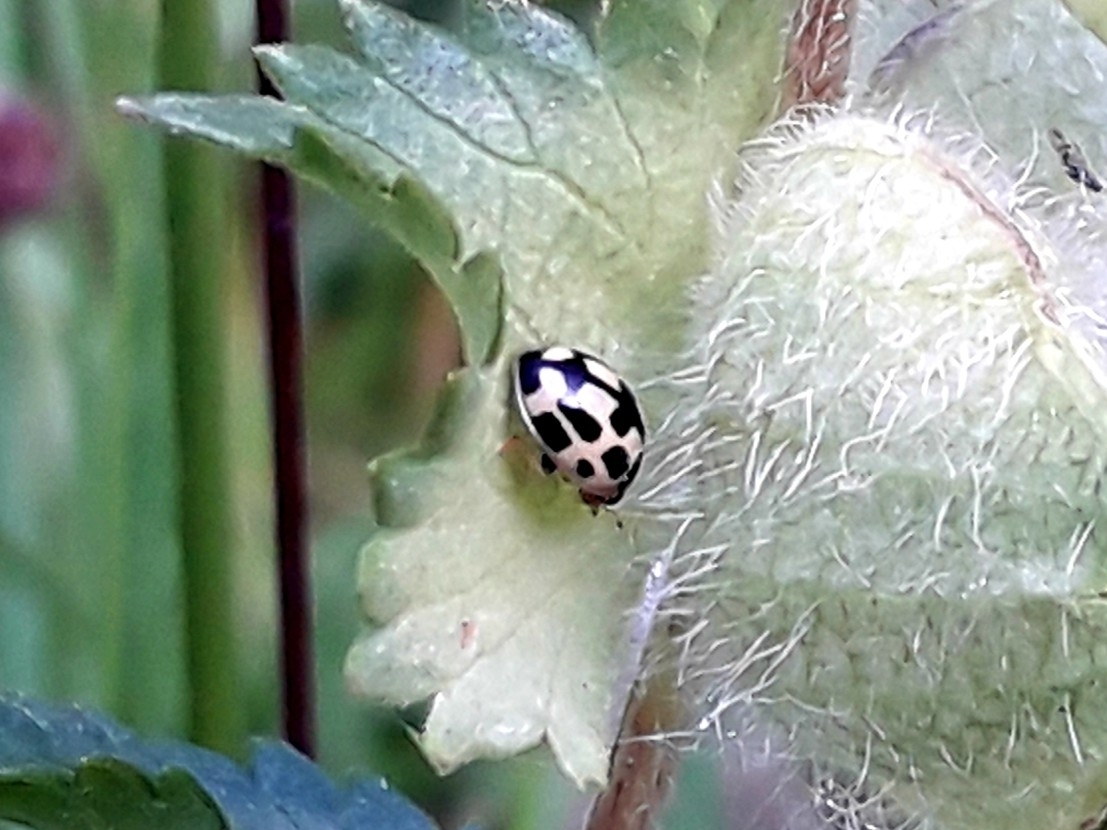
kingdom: Animalia
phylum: Arthropoda
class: Insecta
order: Coleoptera
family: Coccinellidae
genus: Propylaea
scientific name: Propylaea quatuordecimpunctata
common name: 14-spotted ladybird beetle
